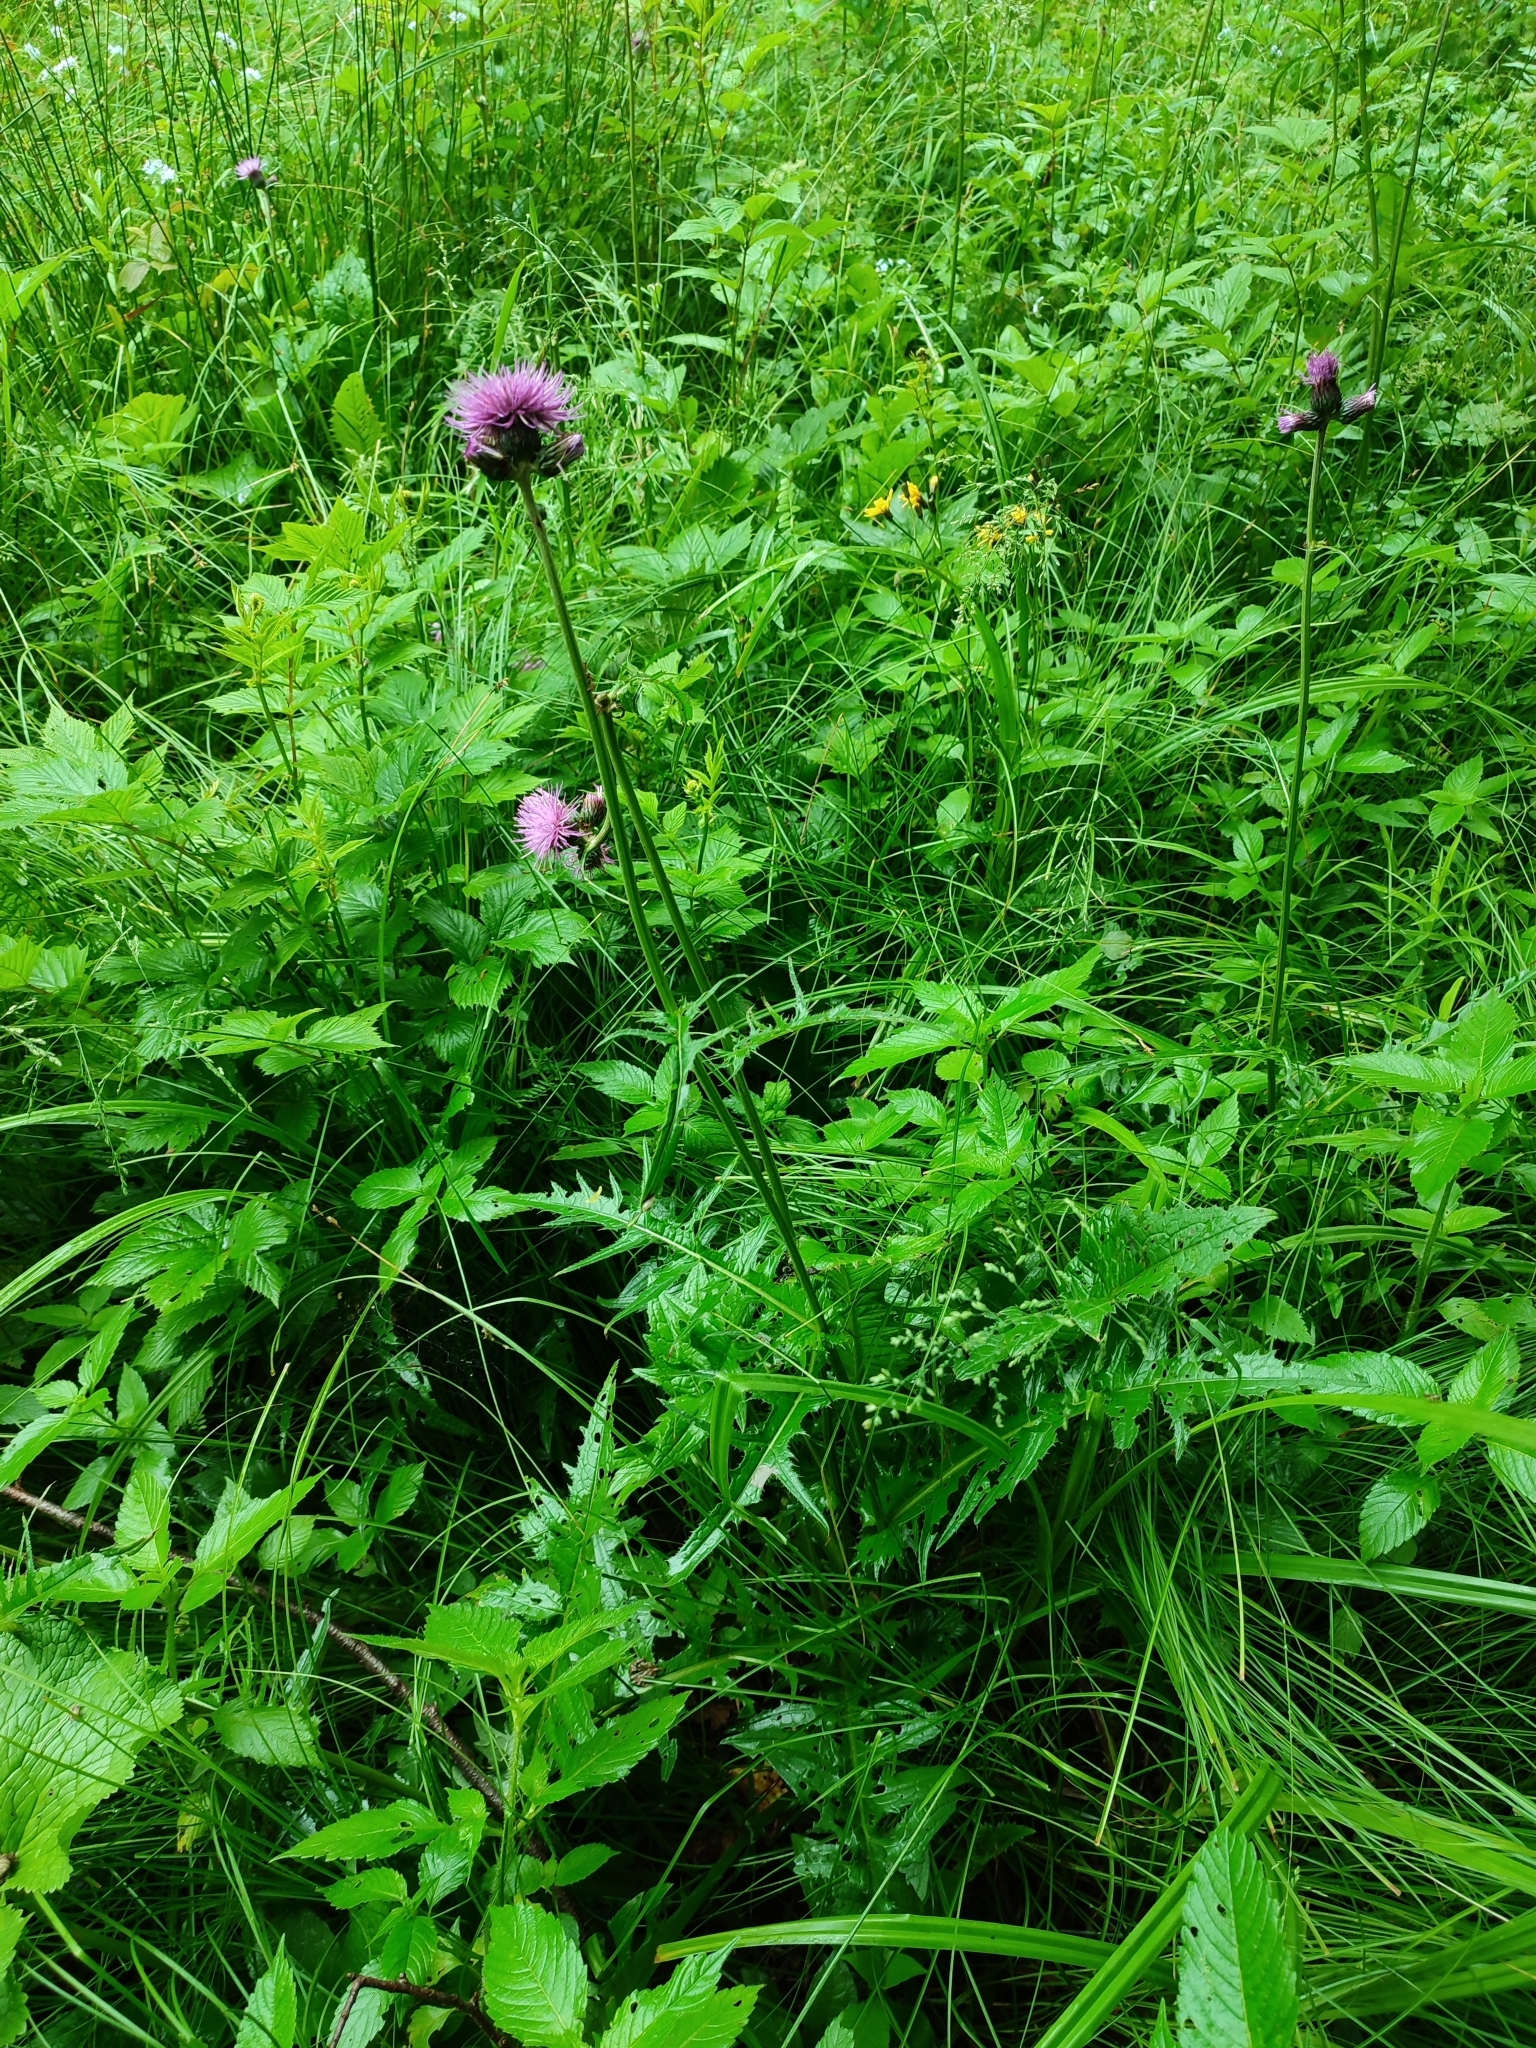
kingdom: Plantae
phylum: Tracheophyta
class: Magnoliopsida
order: Asterales
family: Asteraceae
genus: Cirsium
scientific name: Cirsium rivulare
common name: Brook thistle
